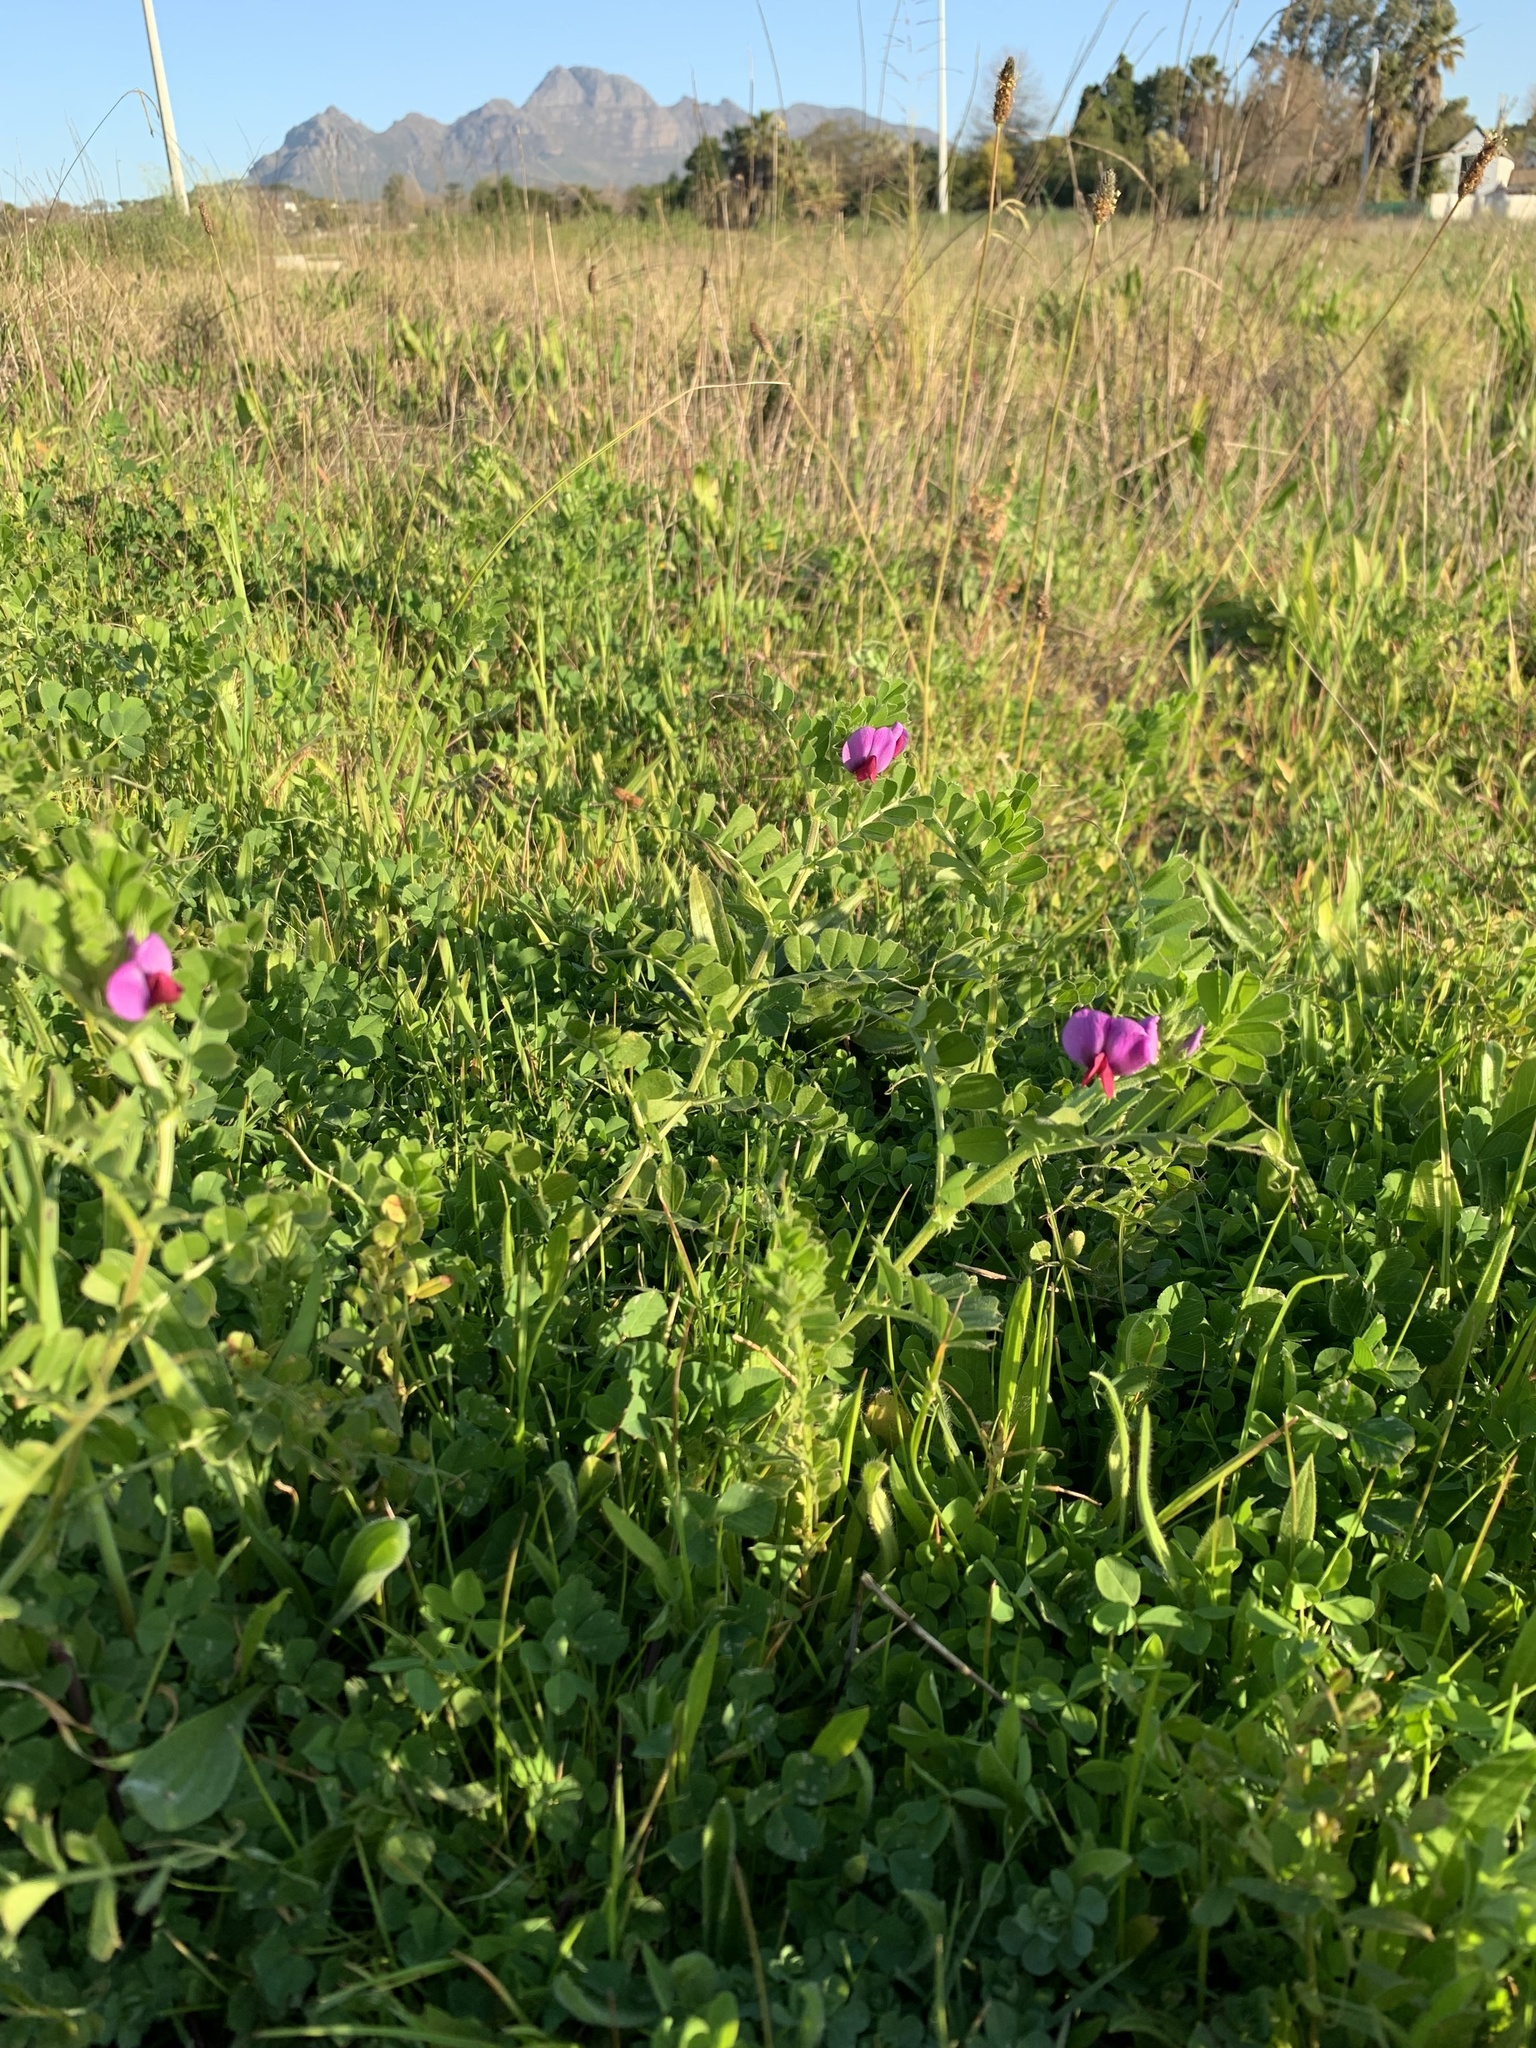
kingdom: Plantae
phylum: Tracheophyta
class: Magnoliopsida
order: Fabales
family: Fabaceae
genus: Vicia
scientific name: Vicia sativa
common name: Garden vetch
